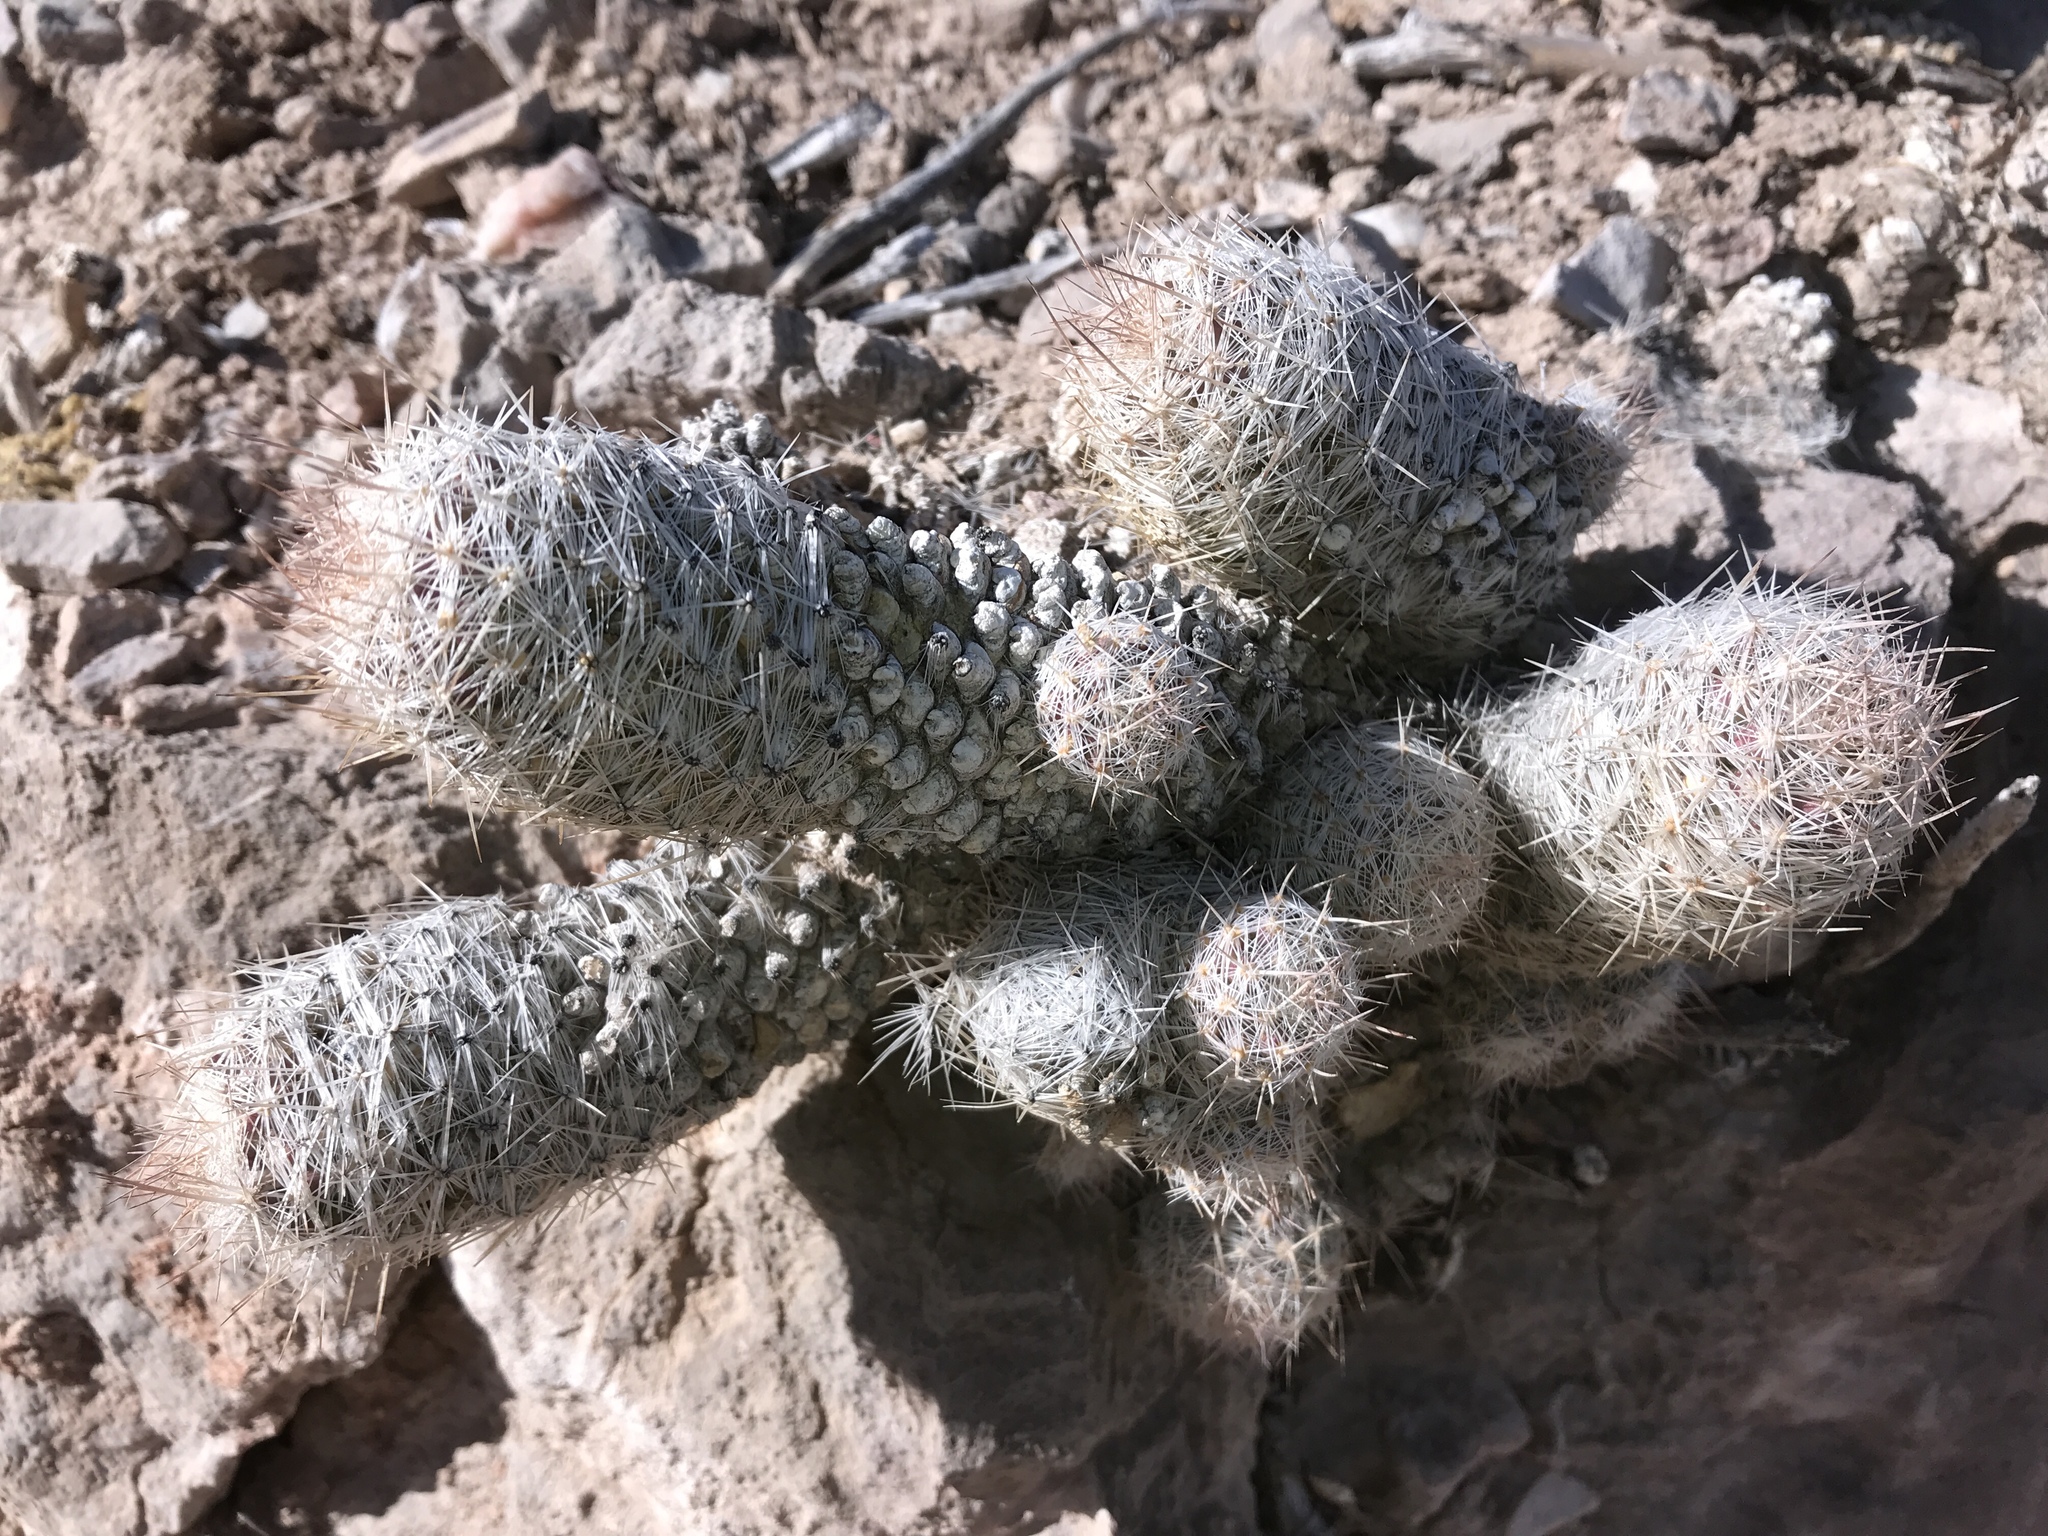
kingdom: Plantae
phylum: Tracheophyta
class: Magnoliopsida
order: Caryophyllales
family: Cactaceae
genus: Pelecyphora
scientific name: Pelecyphora tuberculosa
